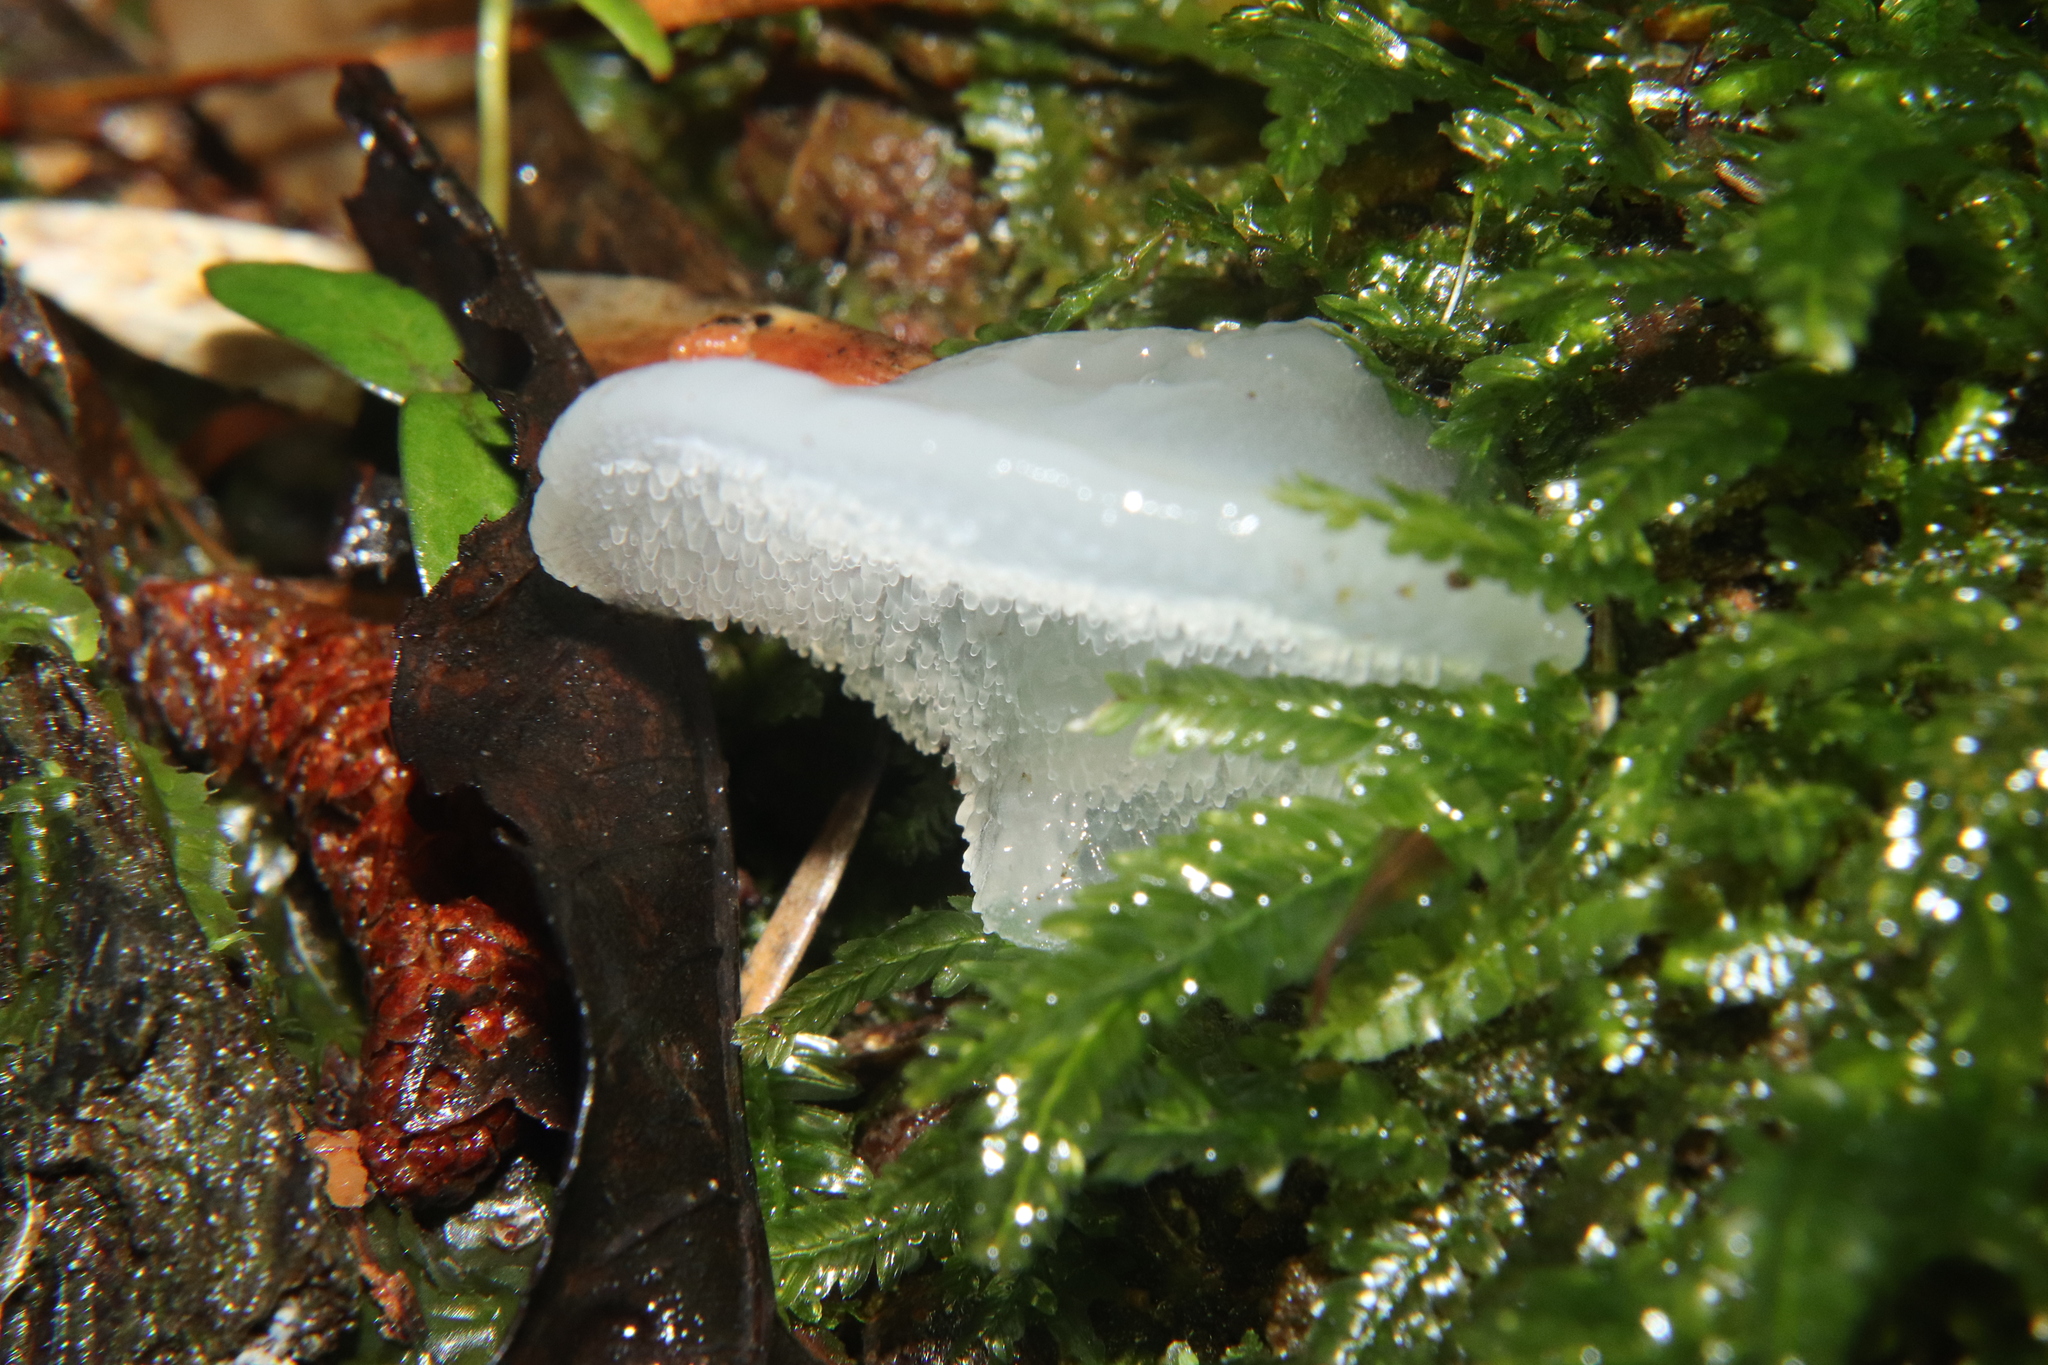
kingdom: Fungi
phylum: Basidiomycota
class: Agaricomycetes
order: Auriculariales
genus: Pseudohydnum
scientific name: Pseudohydnum orbiculare
